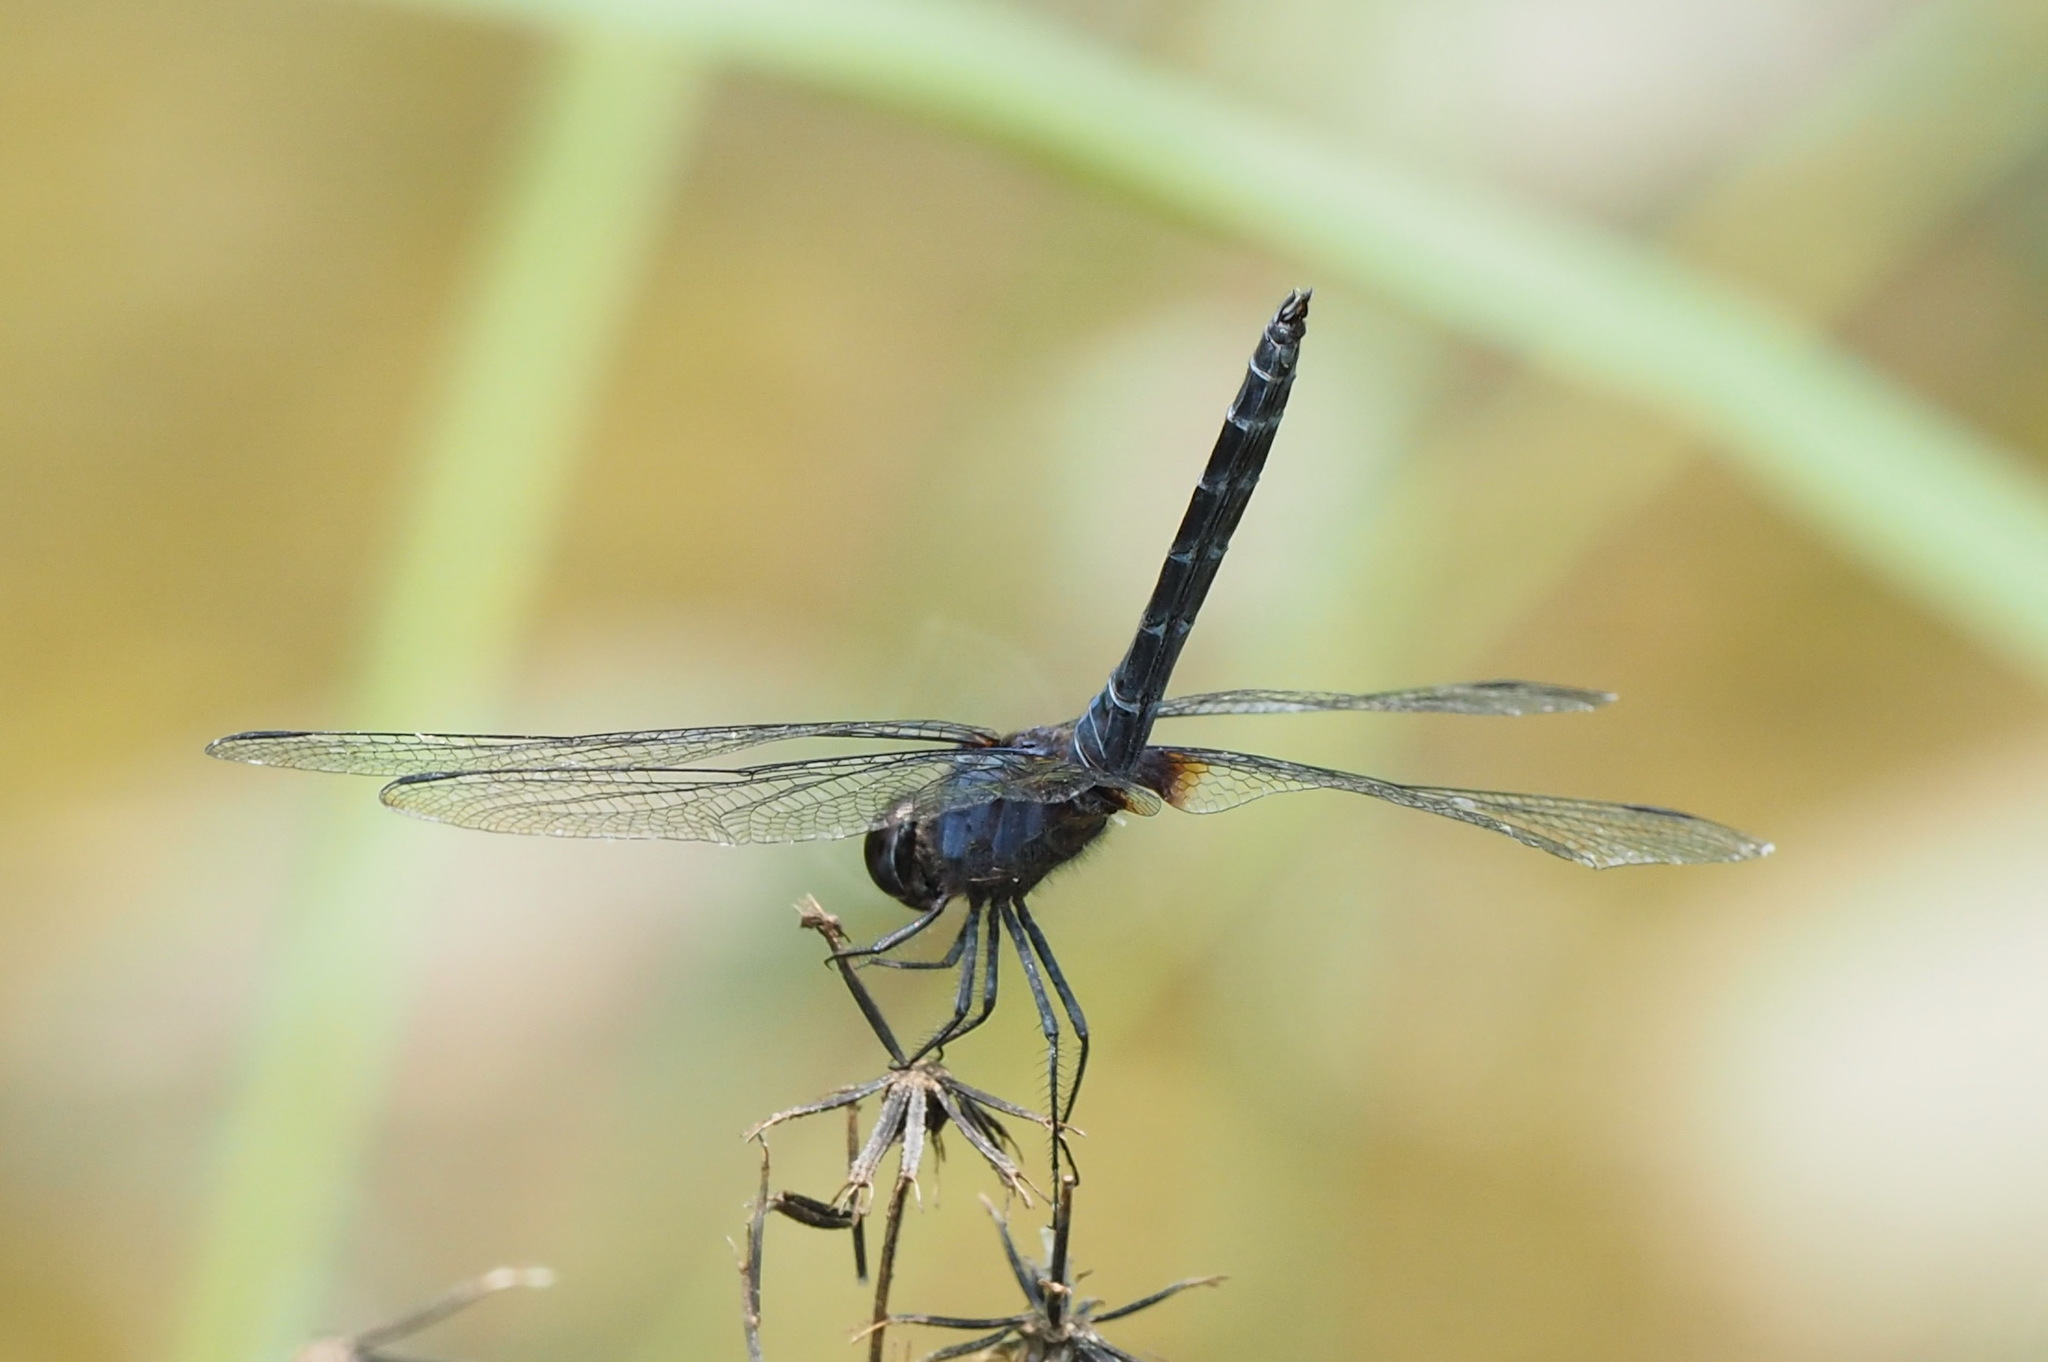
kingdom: Animalia
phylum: Arthropoda
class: Insecta
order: Odonata
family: Libellulidae
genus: Trithemis
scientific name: Trithemis festiva
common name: Indigo dropwing
